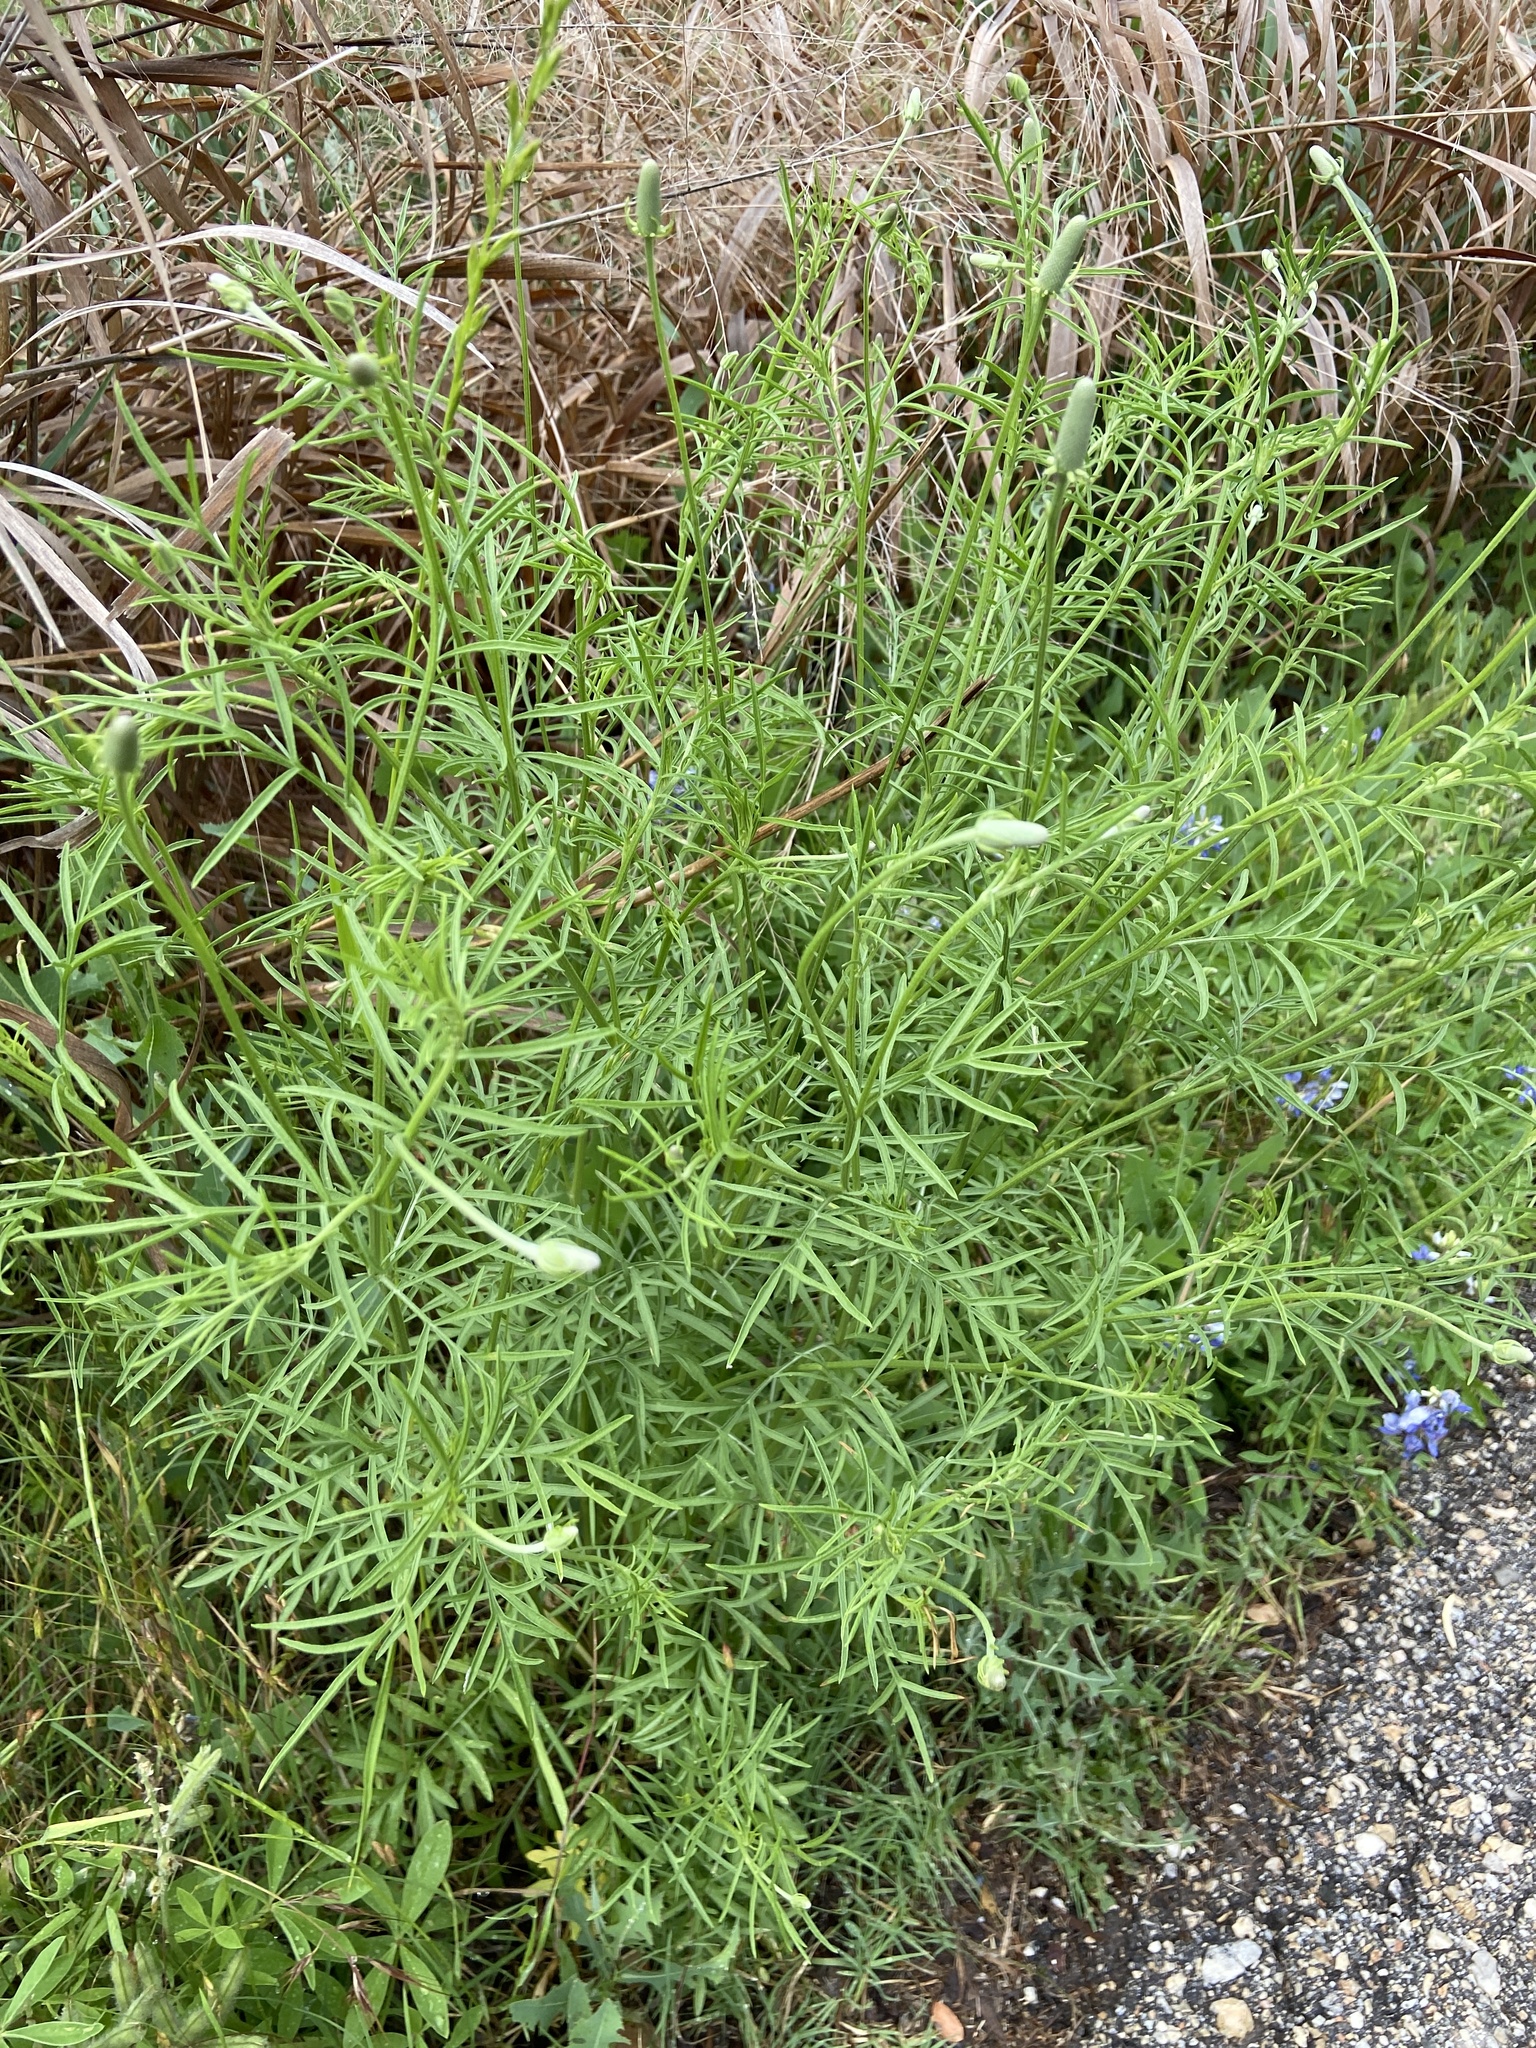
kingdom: Plantae
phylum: Tracheophyta
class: Magnoliopsida
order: Asterales
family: Asteraceae
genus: Ratibida
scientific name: Ratibida columnifera
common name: Prairie coneflower
